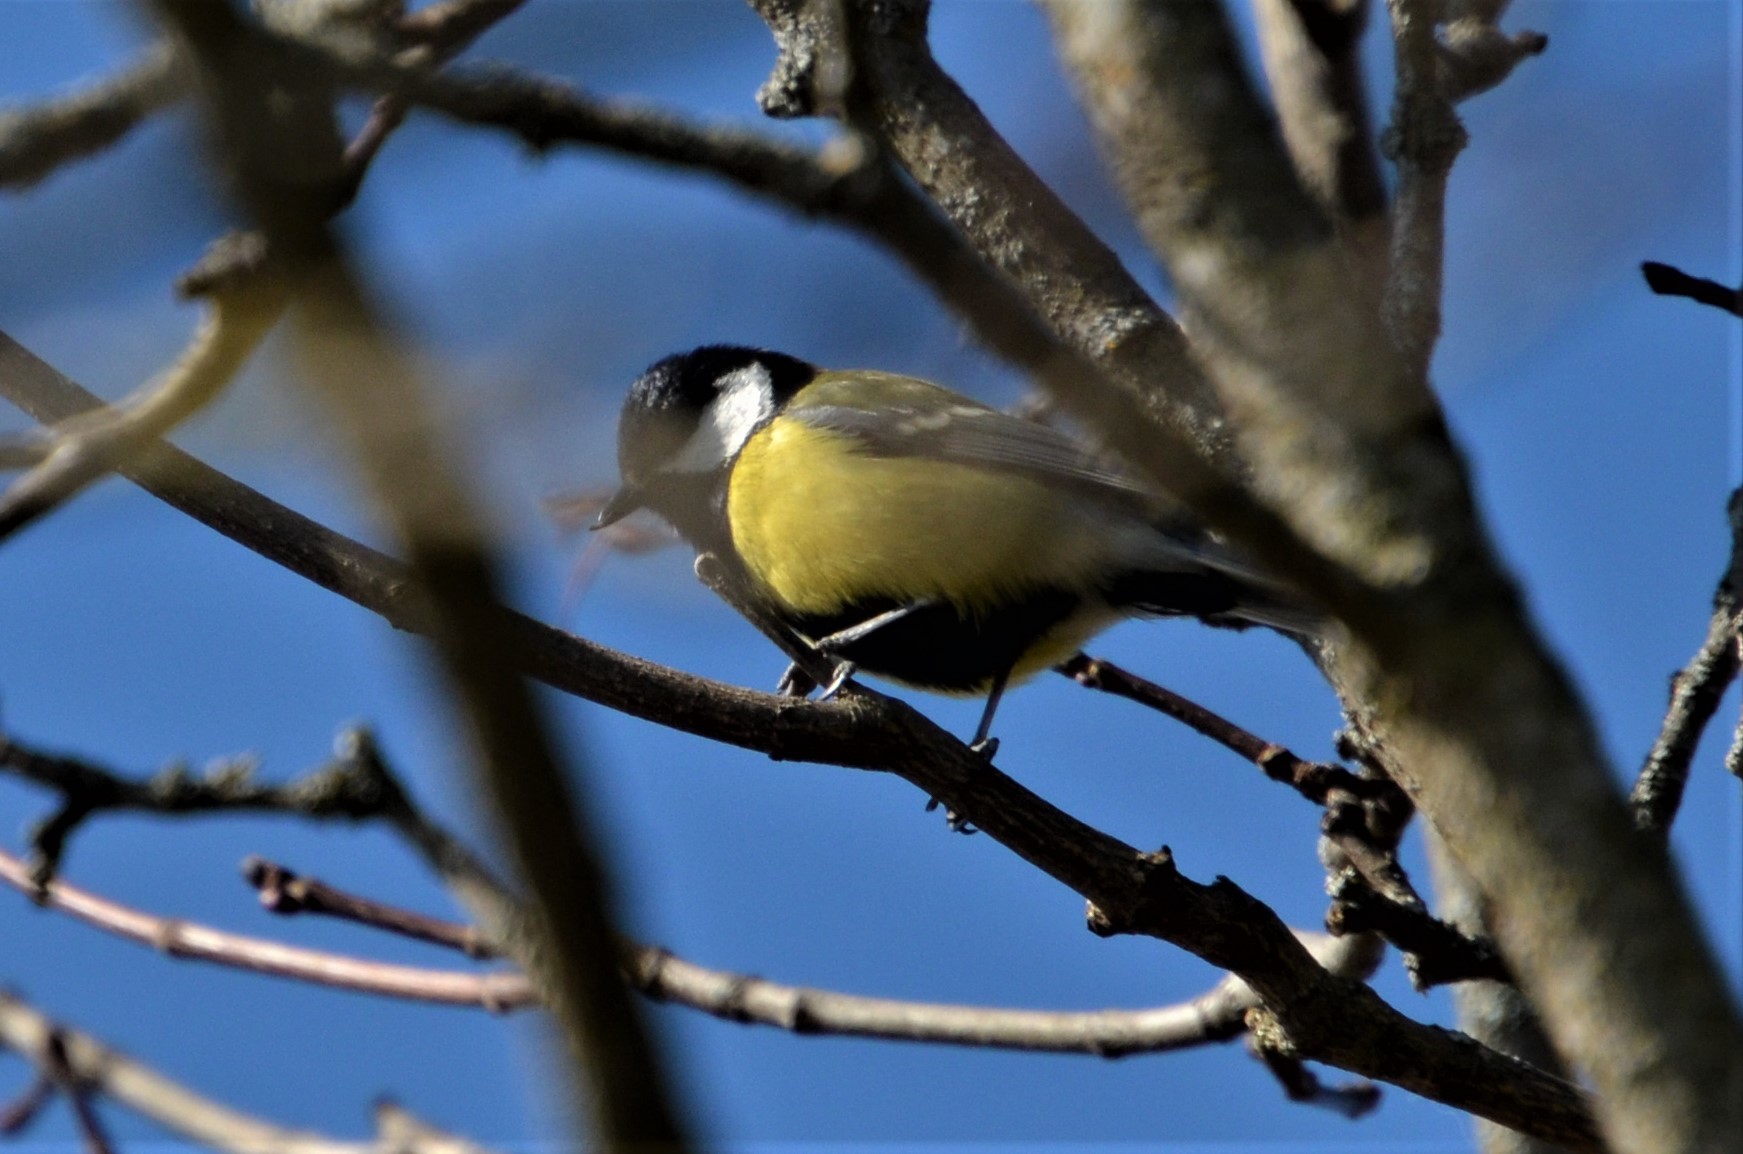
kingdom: Animalia
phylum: Chordata
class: Aves
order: Passeriformes
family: Paridae
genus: Parus
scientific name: Parus major
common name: Great tit
